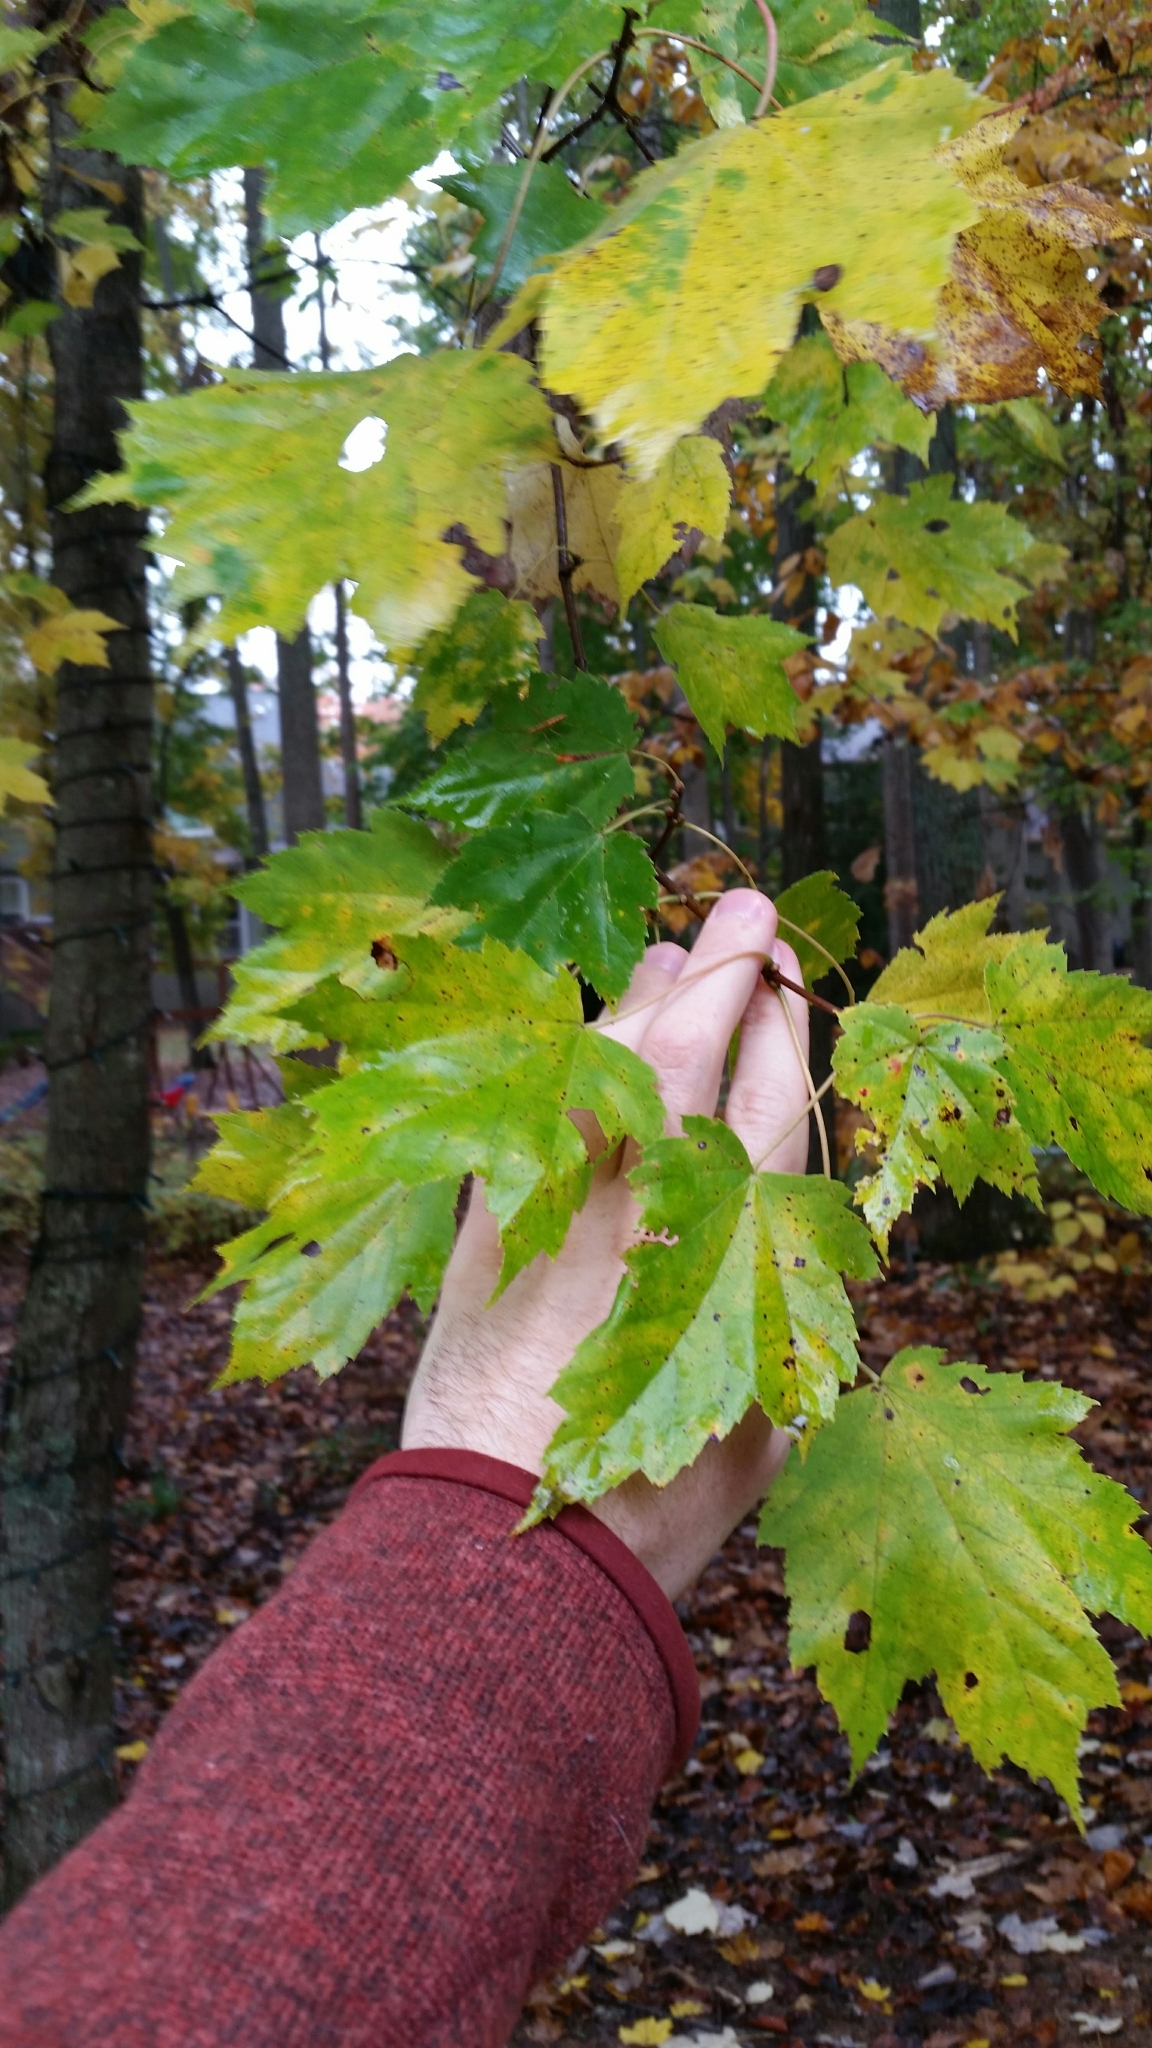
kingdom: Plantae
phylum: Tracheophyta
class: Magnoliopsida
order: Sapindales
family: Sapindaceae
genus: Acer
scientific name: Acer rubrum
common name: Red maple
